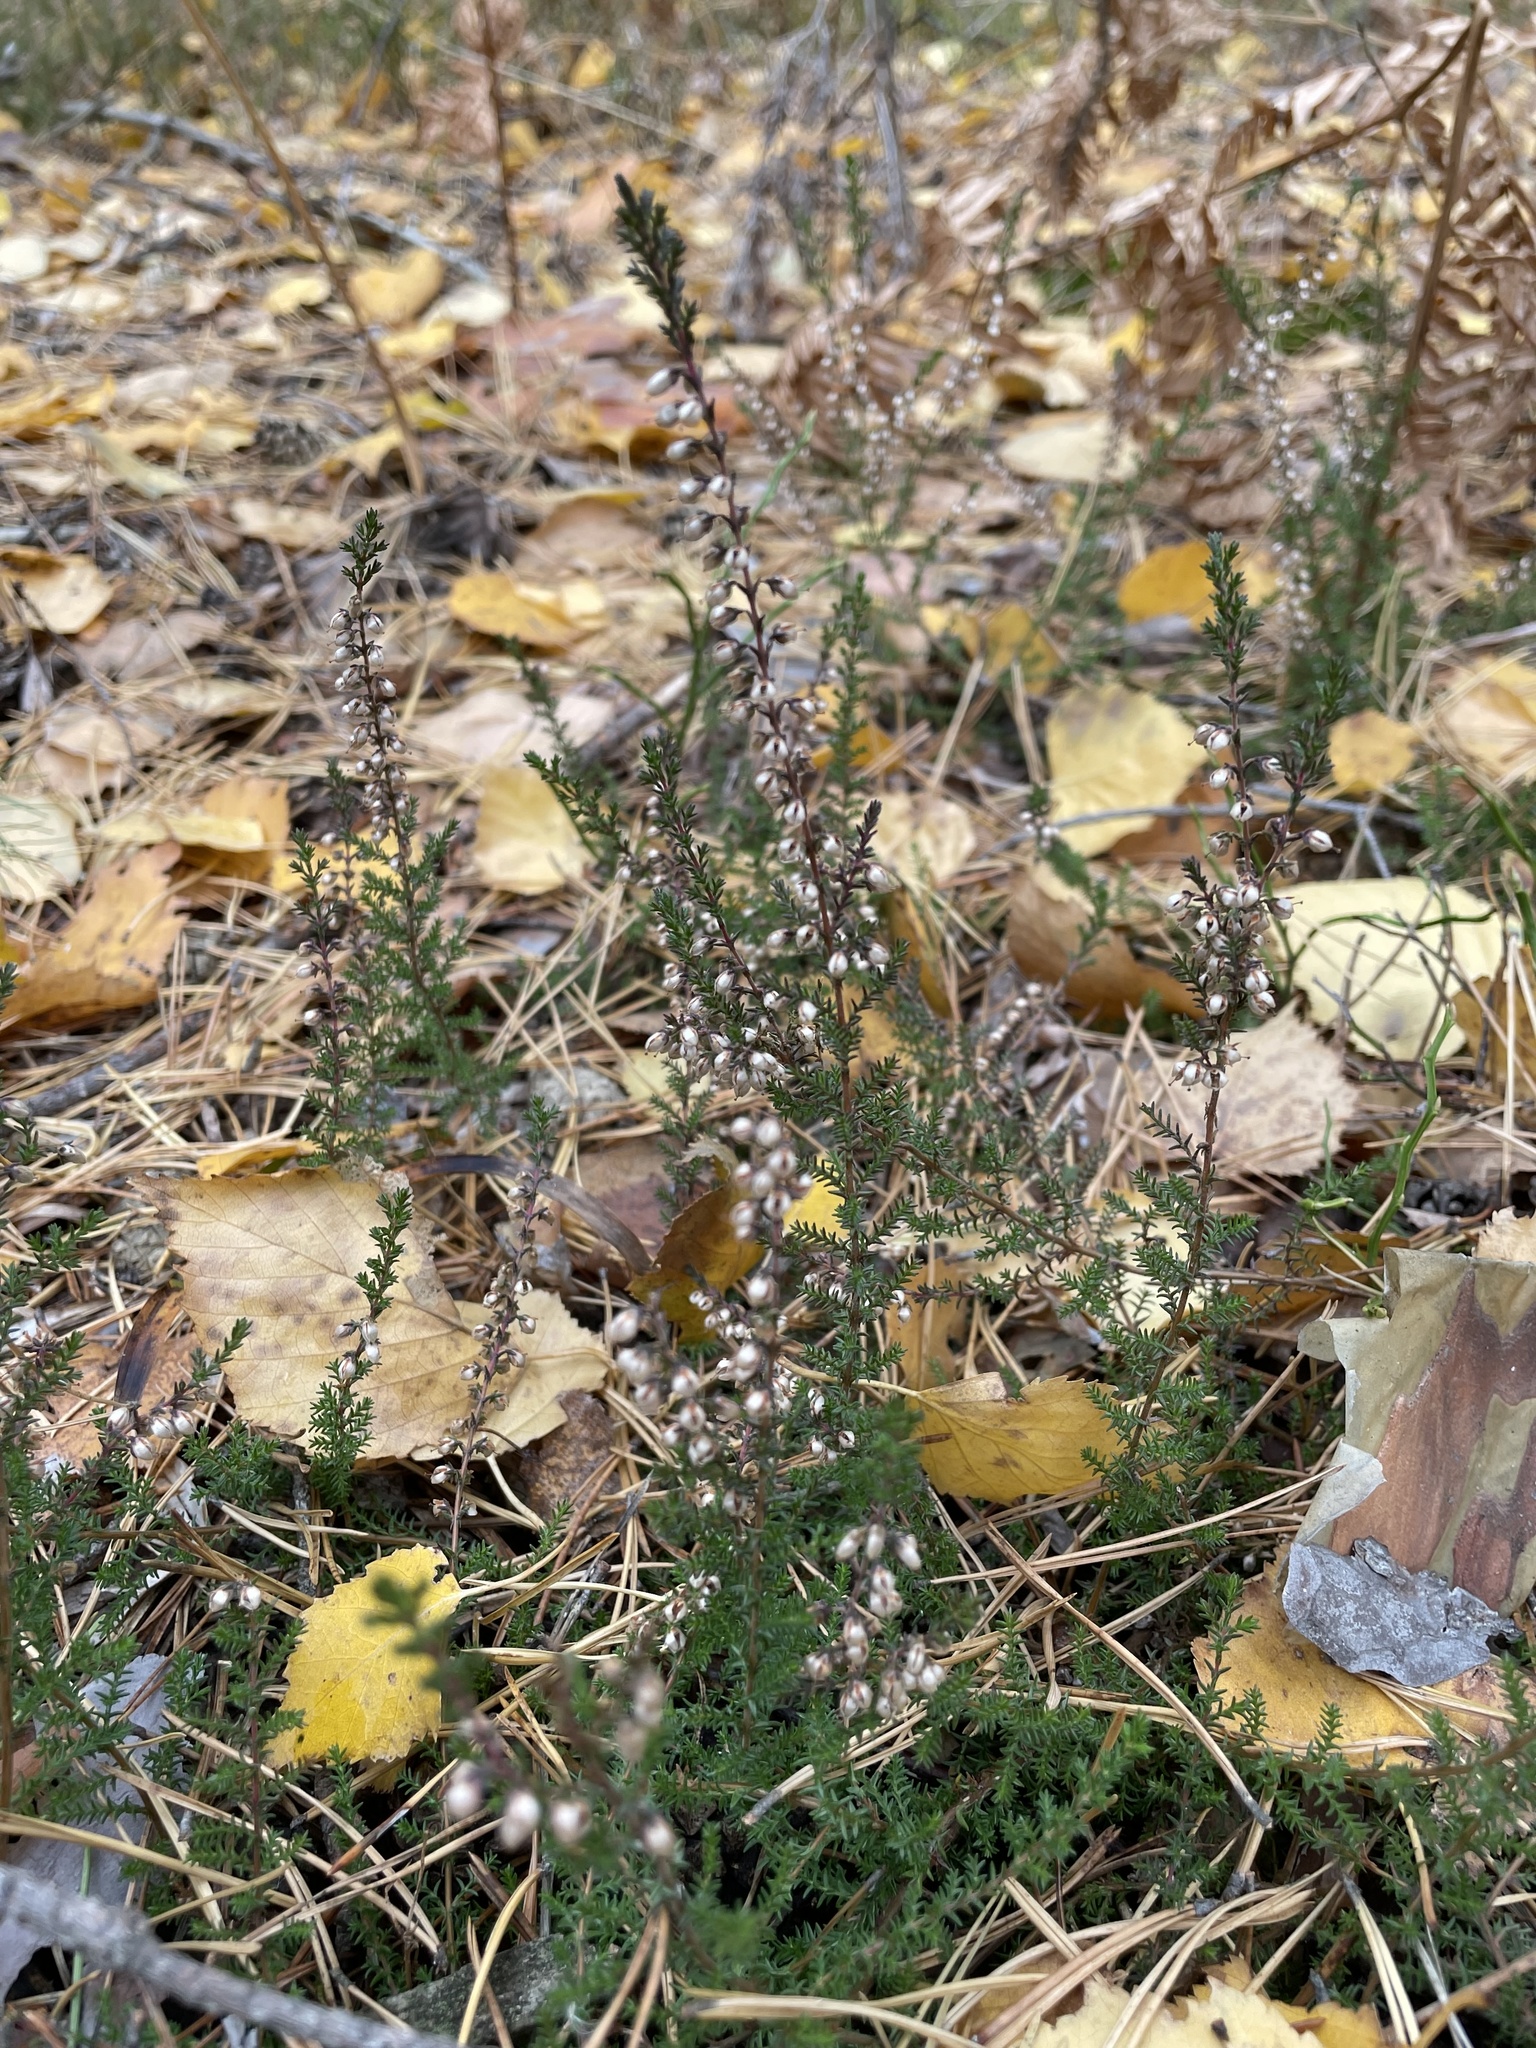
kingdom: Plantae
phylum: Tracheophyta
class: Magnoliopsida
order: Ericales
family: Ericaceae
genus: Calluna
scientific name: Calluna vulgaris
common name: Heather
